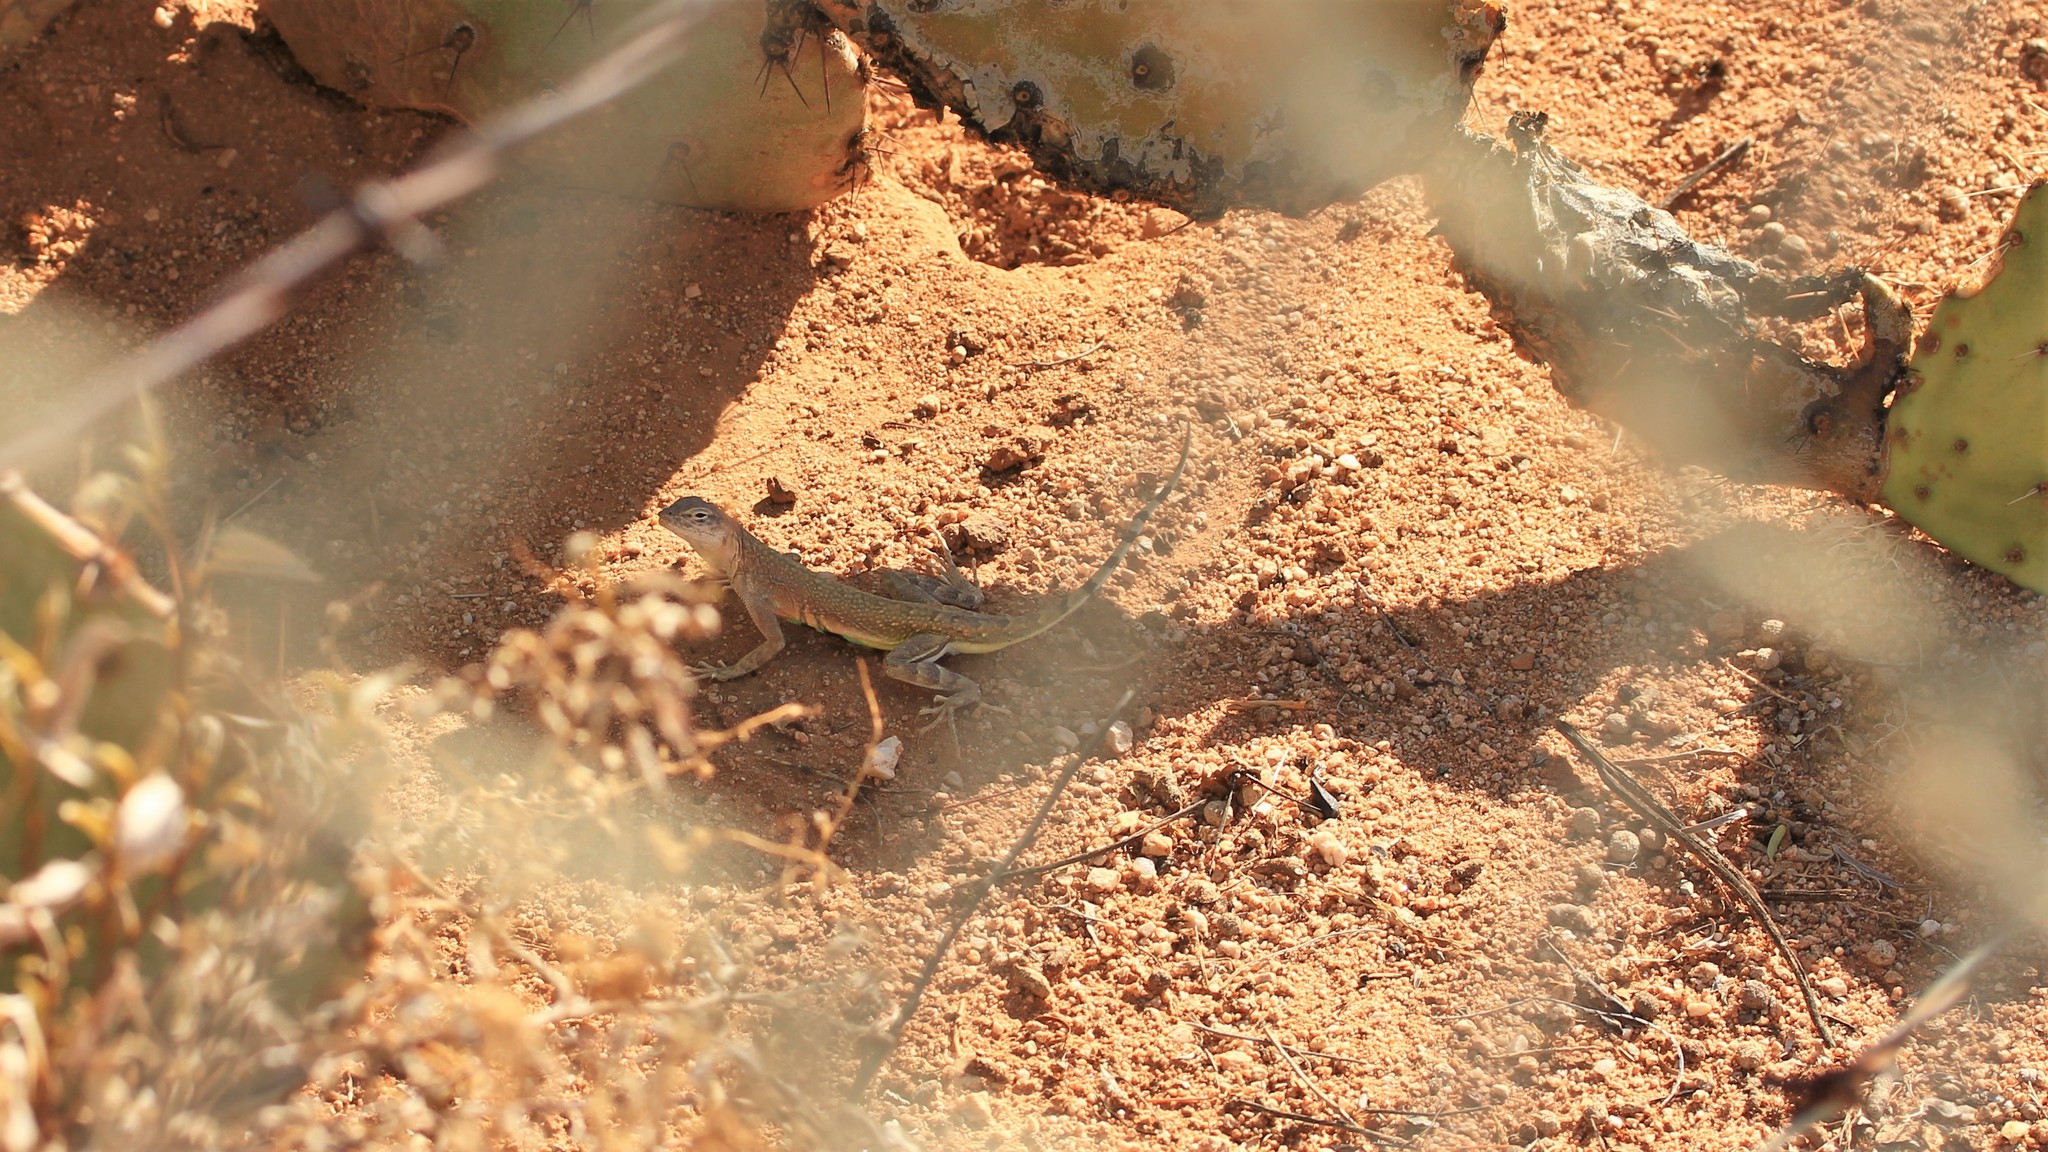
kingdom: Animalia
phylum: Chordata
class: Squamata
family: Phrynosomatidae
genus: Callisaurus
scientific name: Callisaurus draconoides
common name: Zebra-tailed lizard
